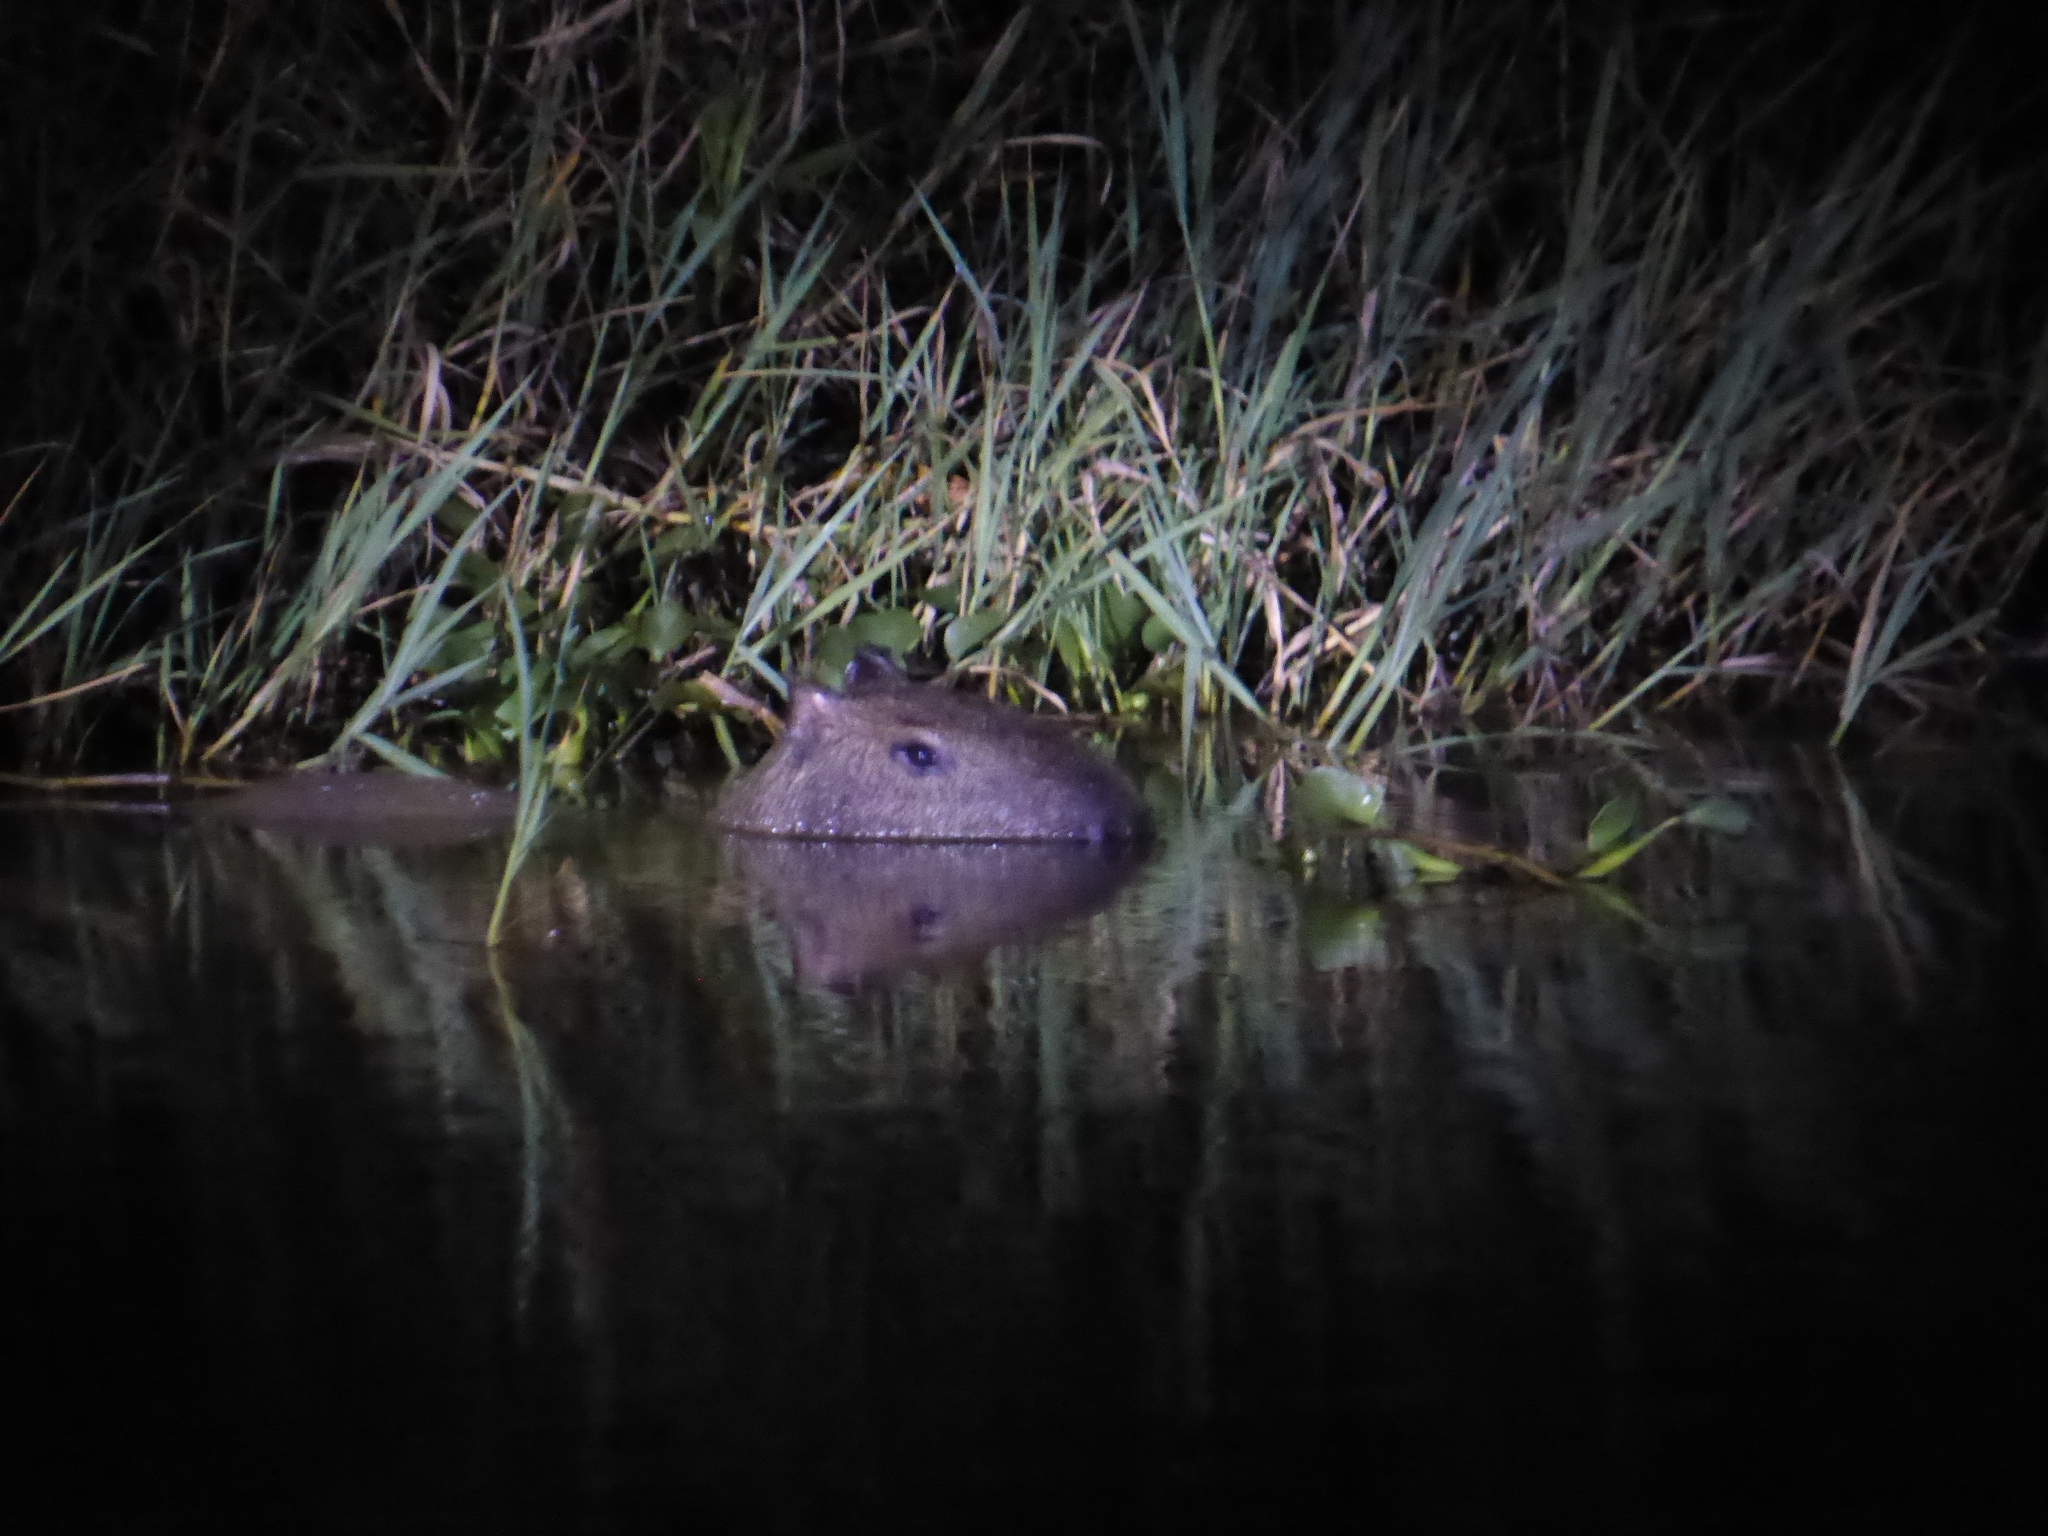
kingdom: Animalia
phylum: Chordata
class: Mammalia
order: Rodentia
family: Caviidae
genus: Hydrochoerus
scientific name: Hydrochoerus hydrochaeris
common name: Capybara
